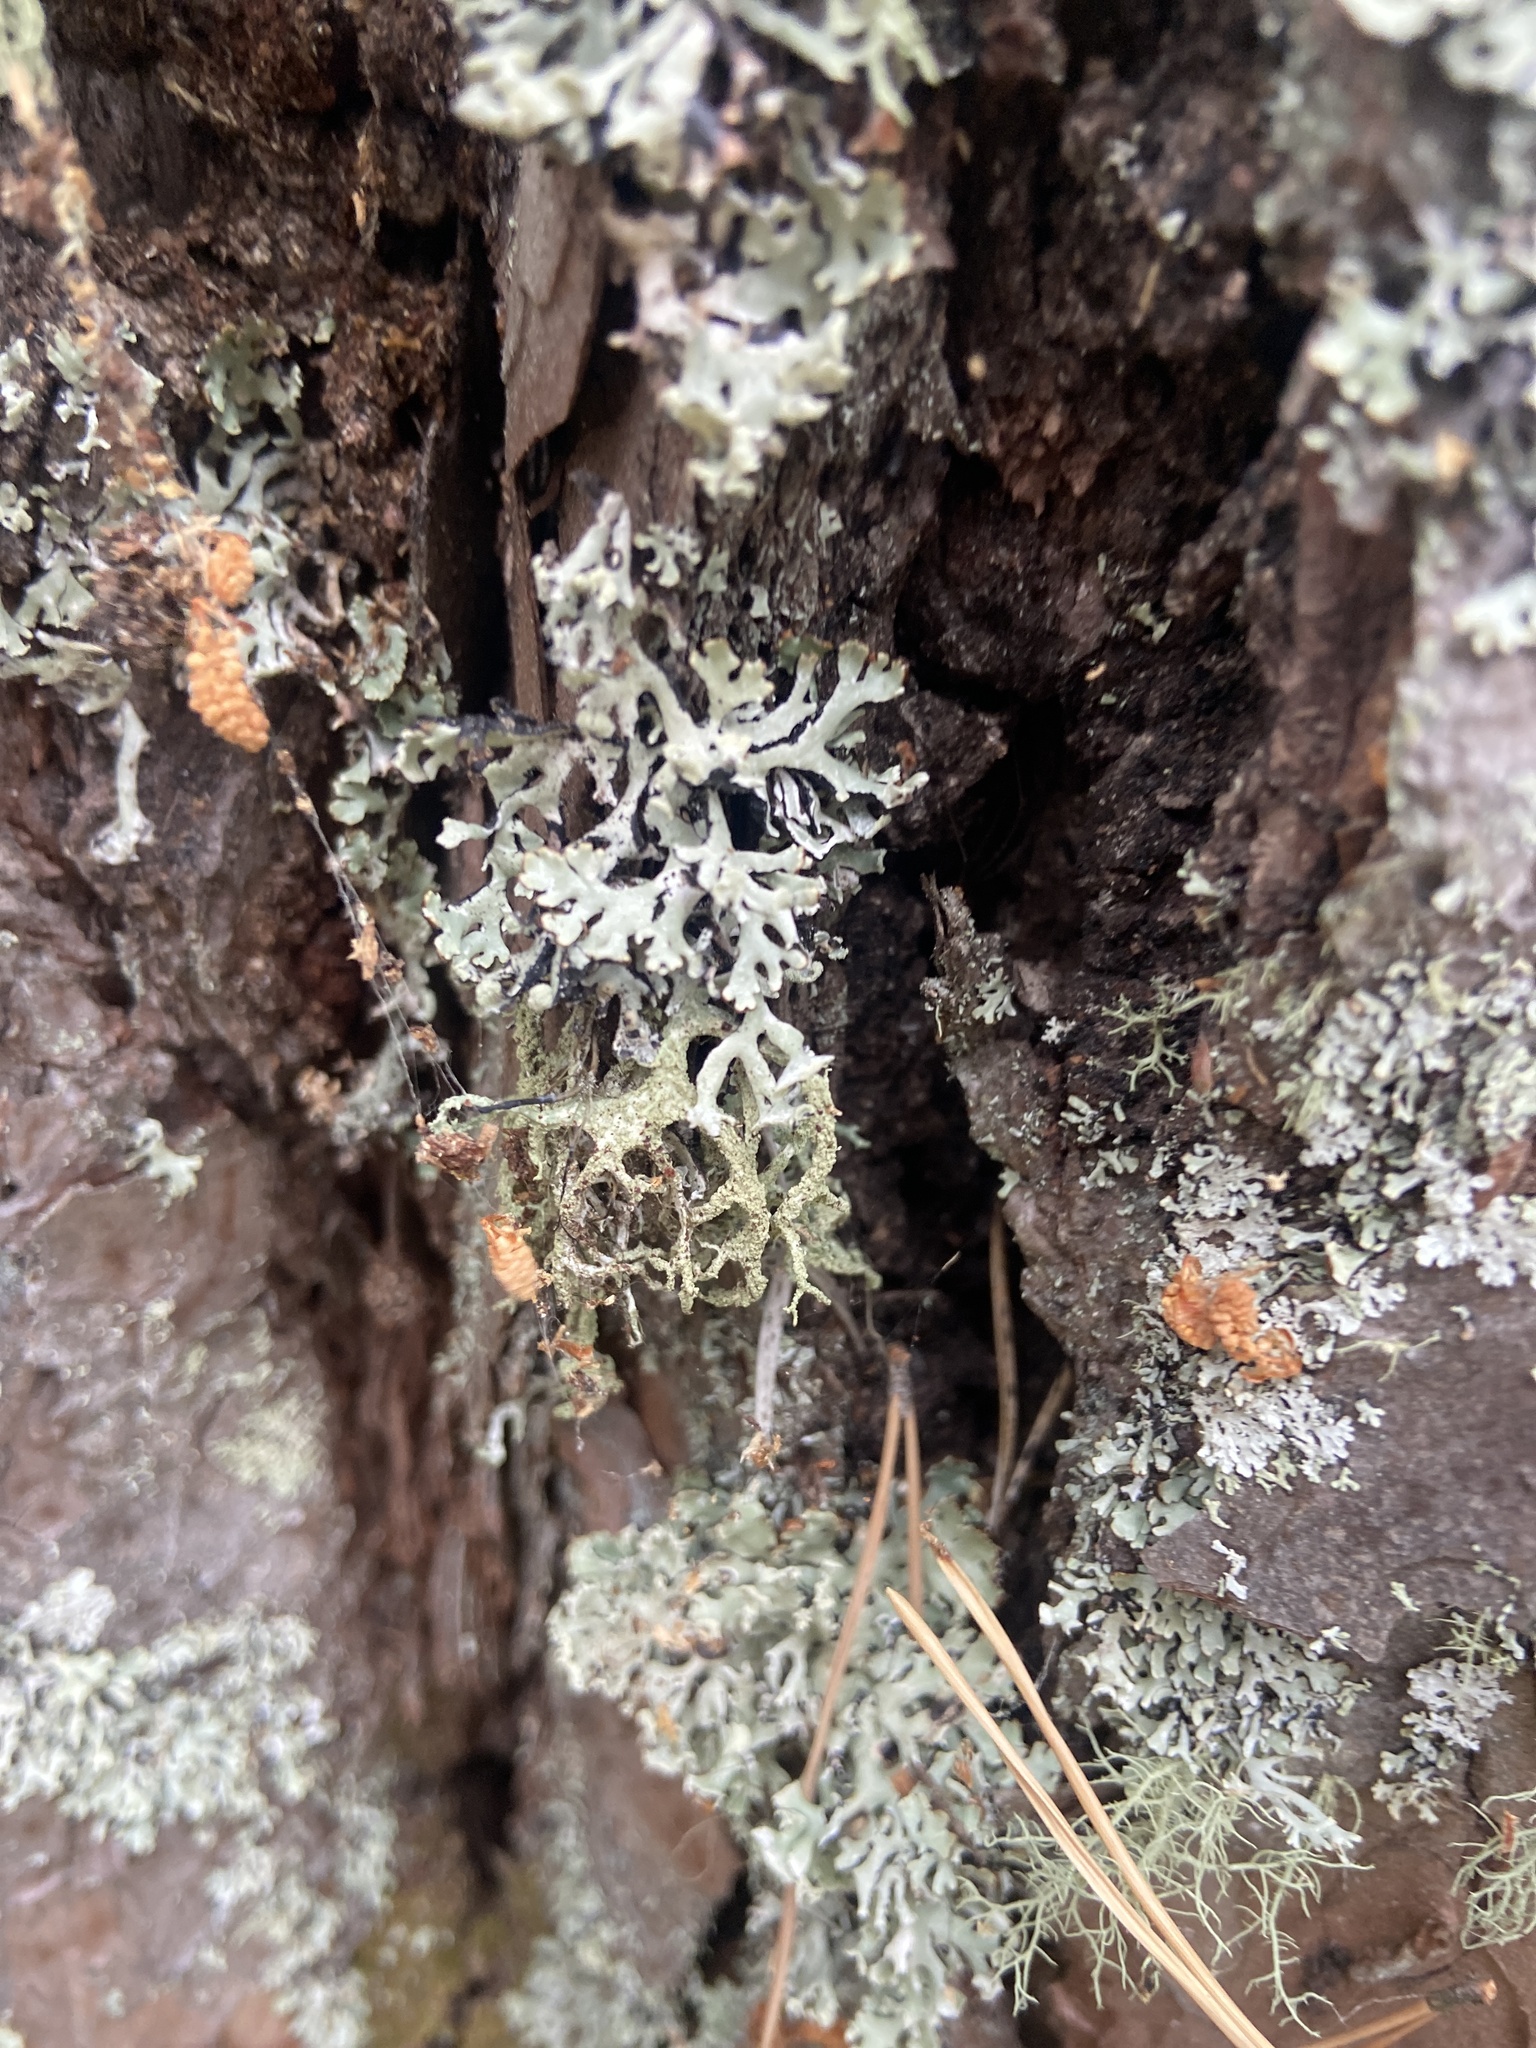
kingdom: Fungi
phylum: Ascomycota
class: Lecanoromycetes
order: Lecanorales
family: Parmeliaceae
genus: Hypogymnia
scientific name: Hypogymnia physodes
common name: Dark crottle
